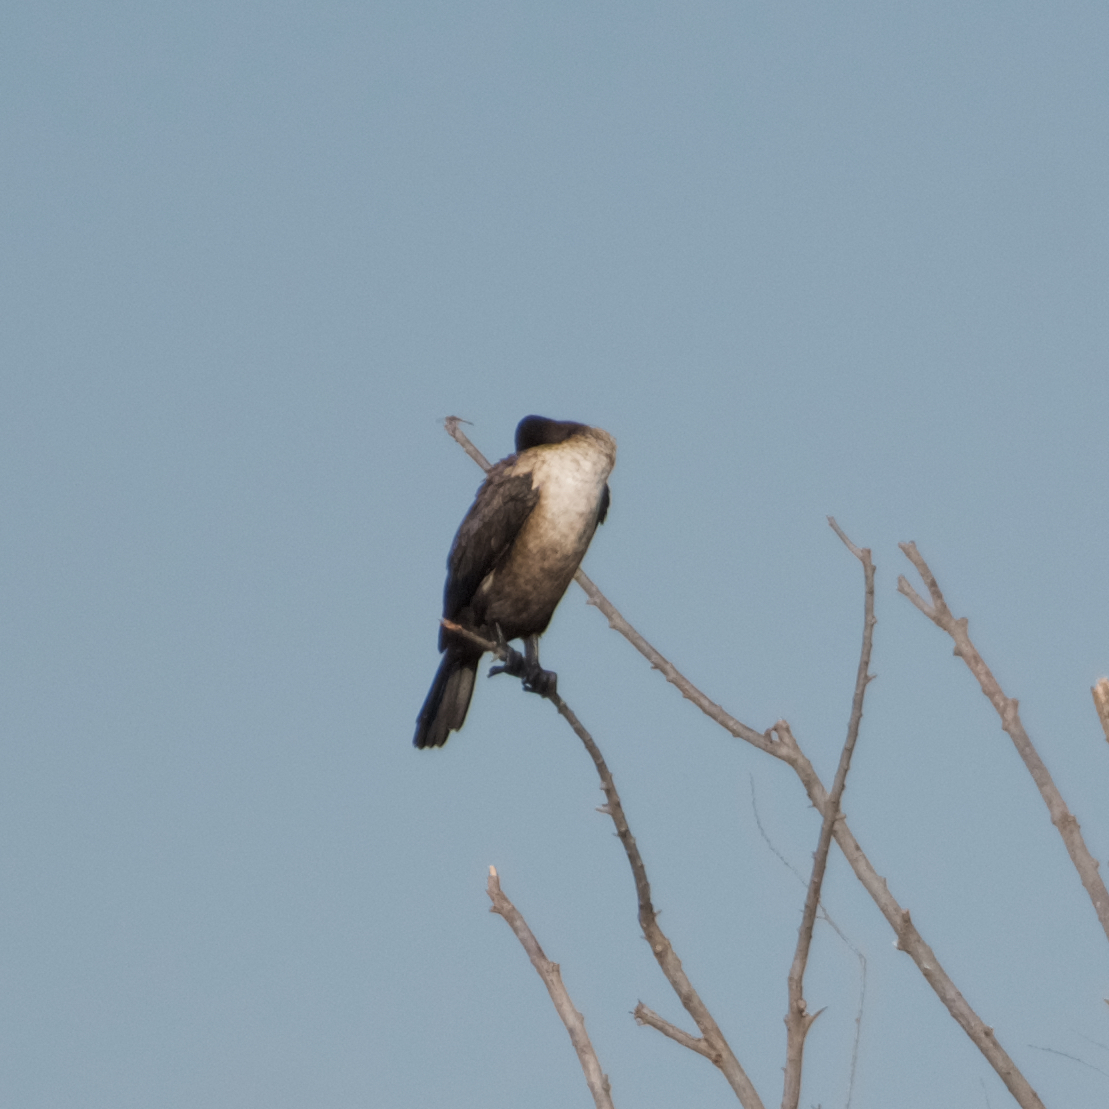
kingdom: Animalia
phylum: Chordata
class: Aves
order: Suliformes
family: Phalacrocoracidae
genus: Phalacrocorax
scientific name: Phalacrocorax auritus
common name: Double-crested cormorant
